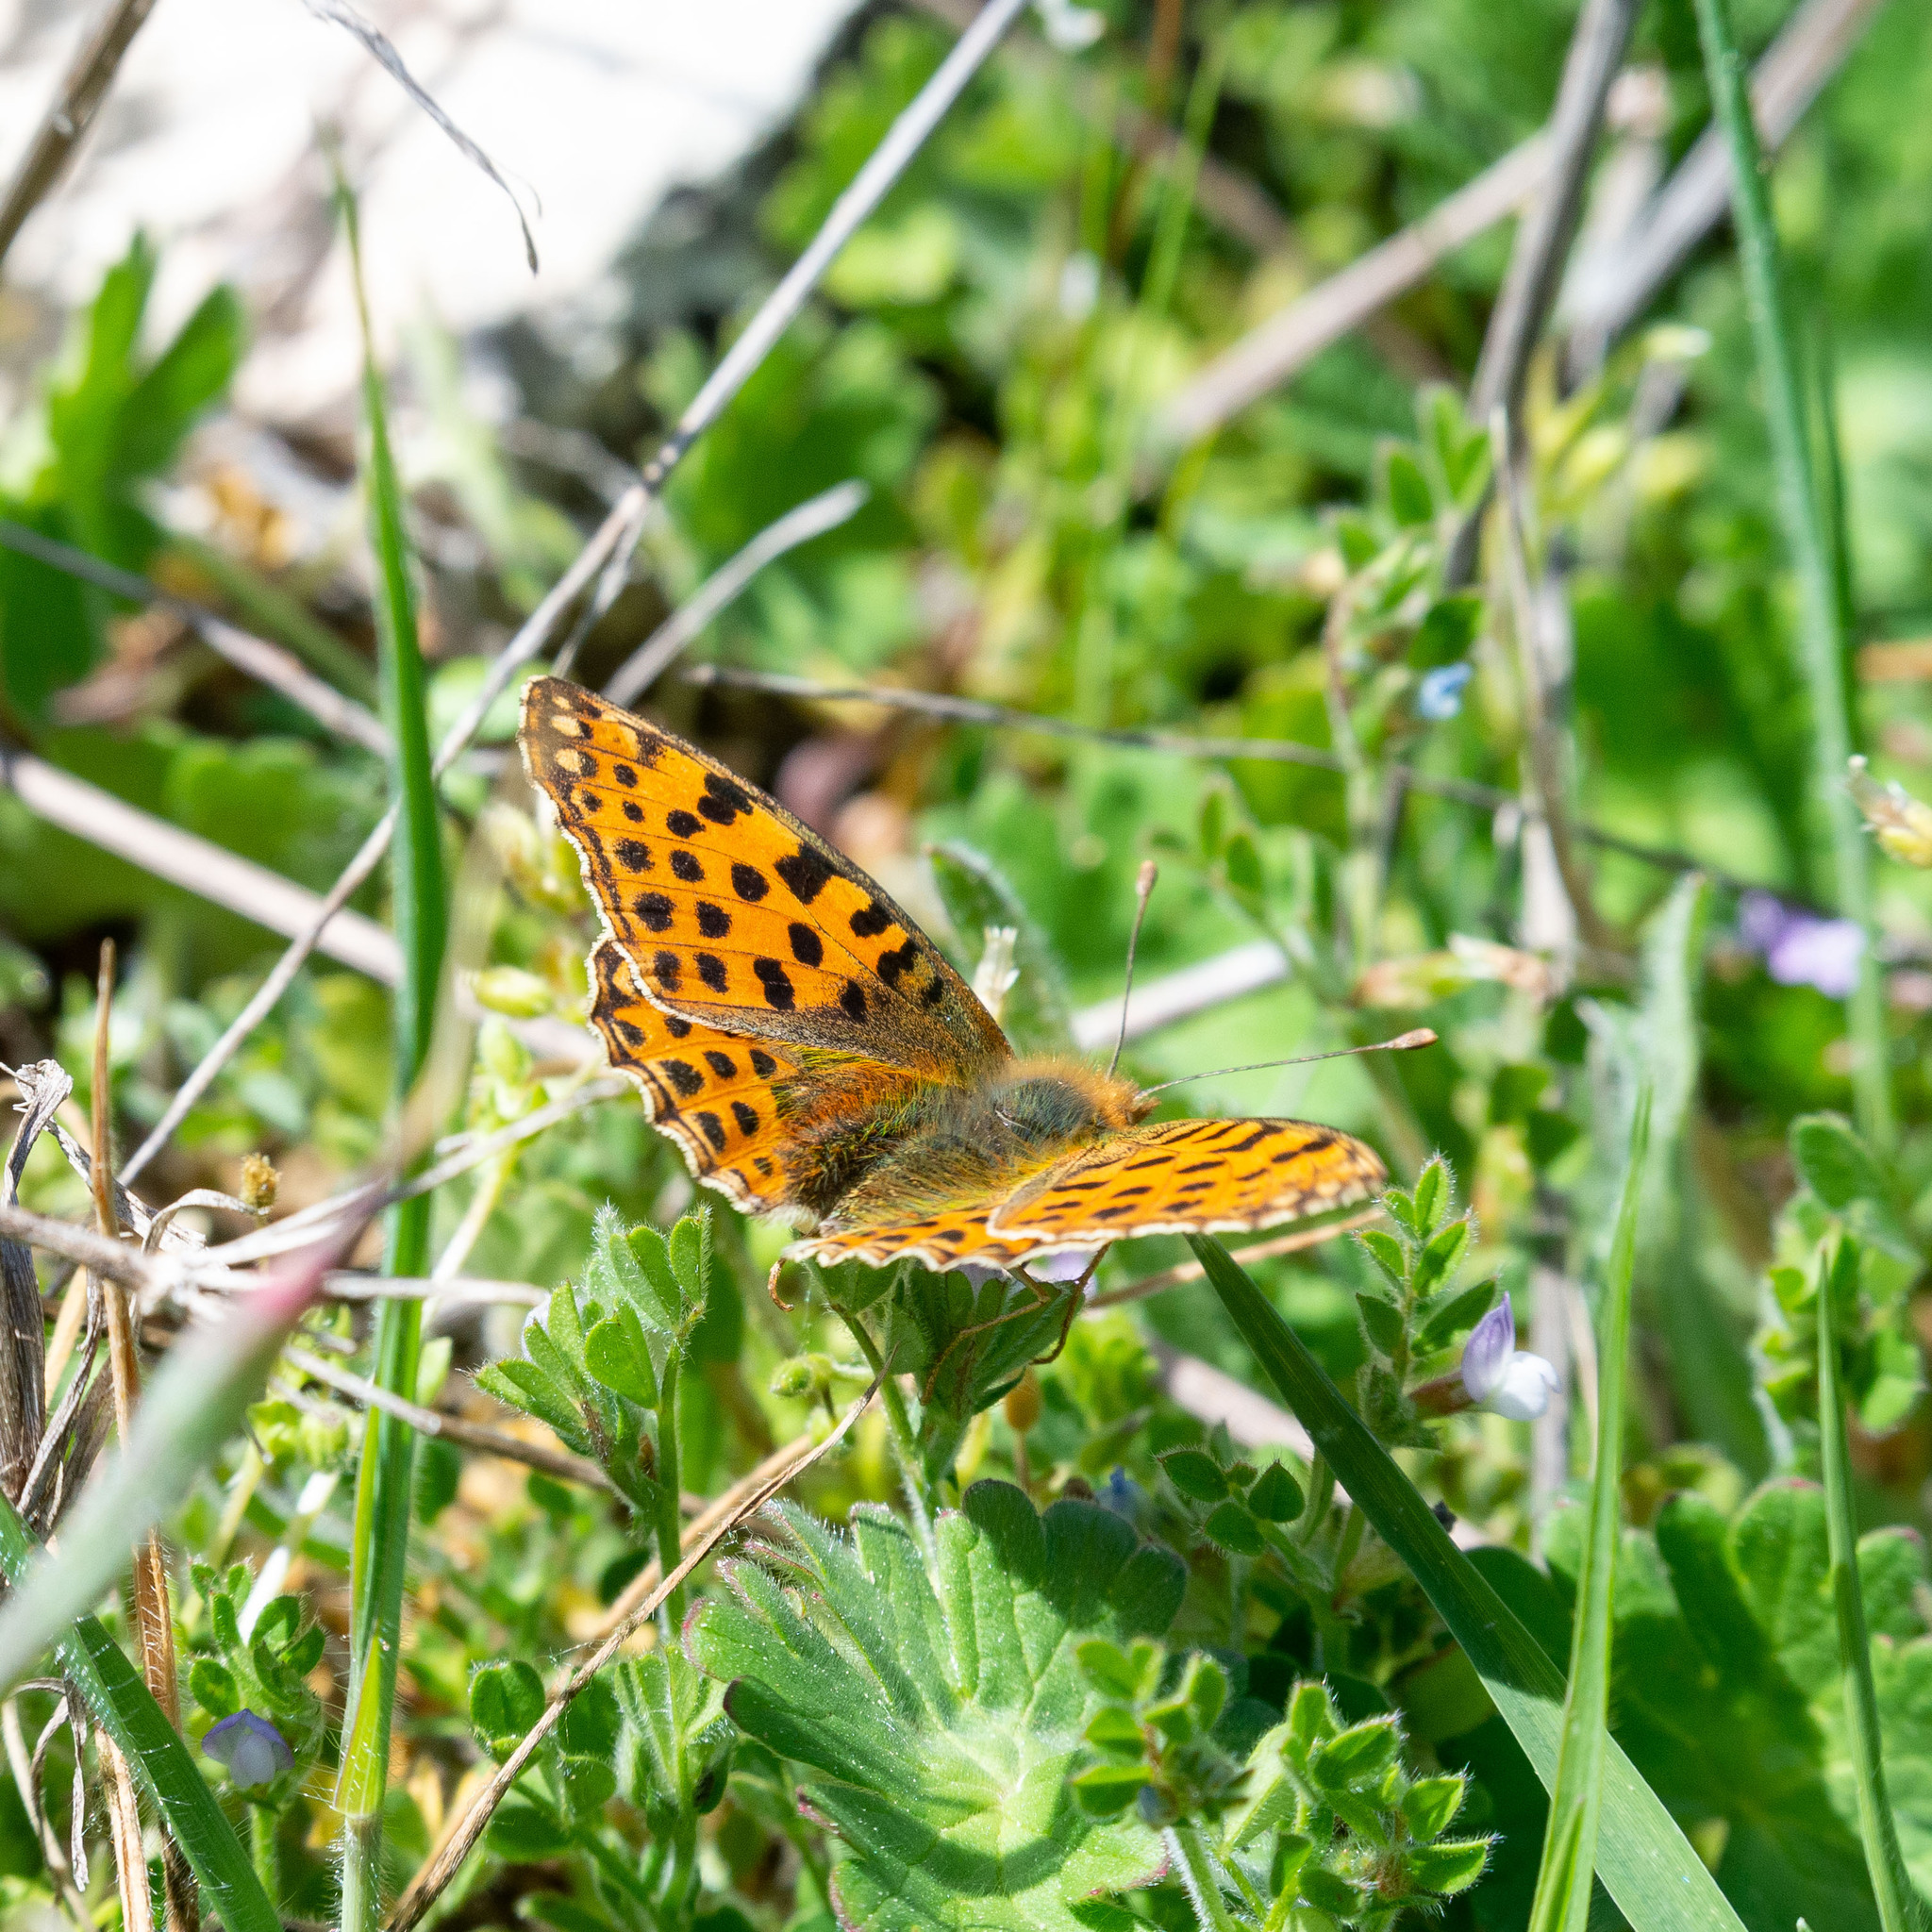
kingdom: Animalia
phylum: Arthropoda
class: Insecta
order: Lepidoptera
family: Nymphalidae
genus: Issoria
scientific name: Issoria lathonia
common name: Queen of spain fritillary
